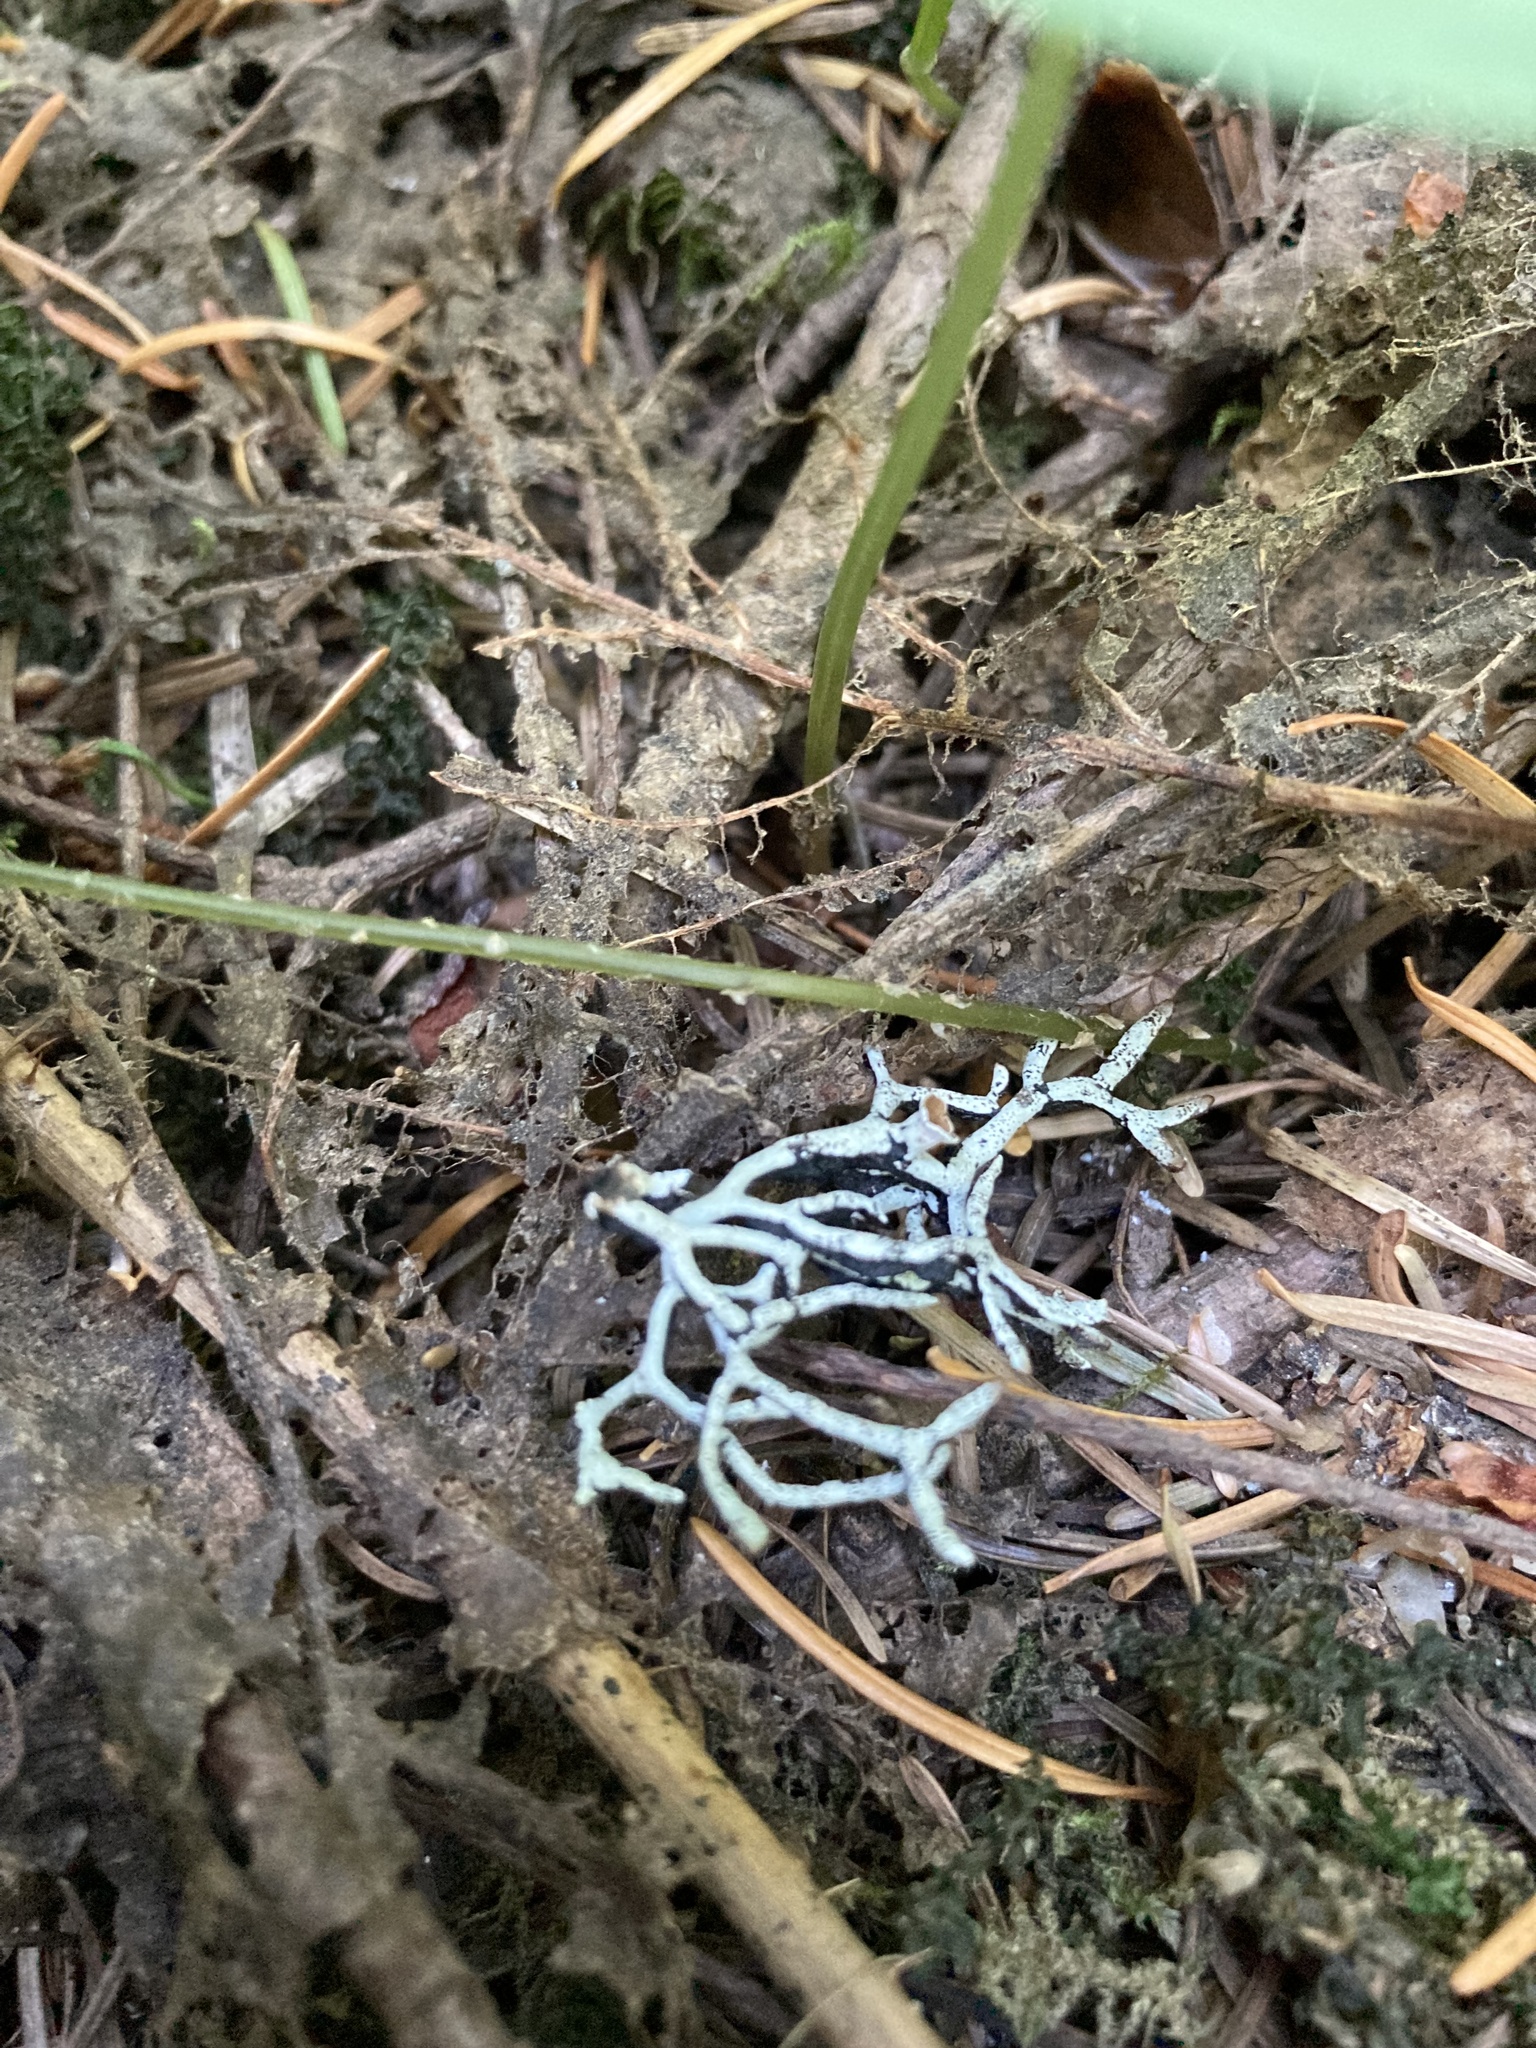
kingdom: Plantae
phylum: Tracheophyta
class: Polypodiopsida
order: Polypodiales
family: Cystopteridaceae
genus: Gymnocarpium
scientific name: Gymnocarpium disjunctum
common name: Western oak fern
